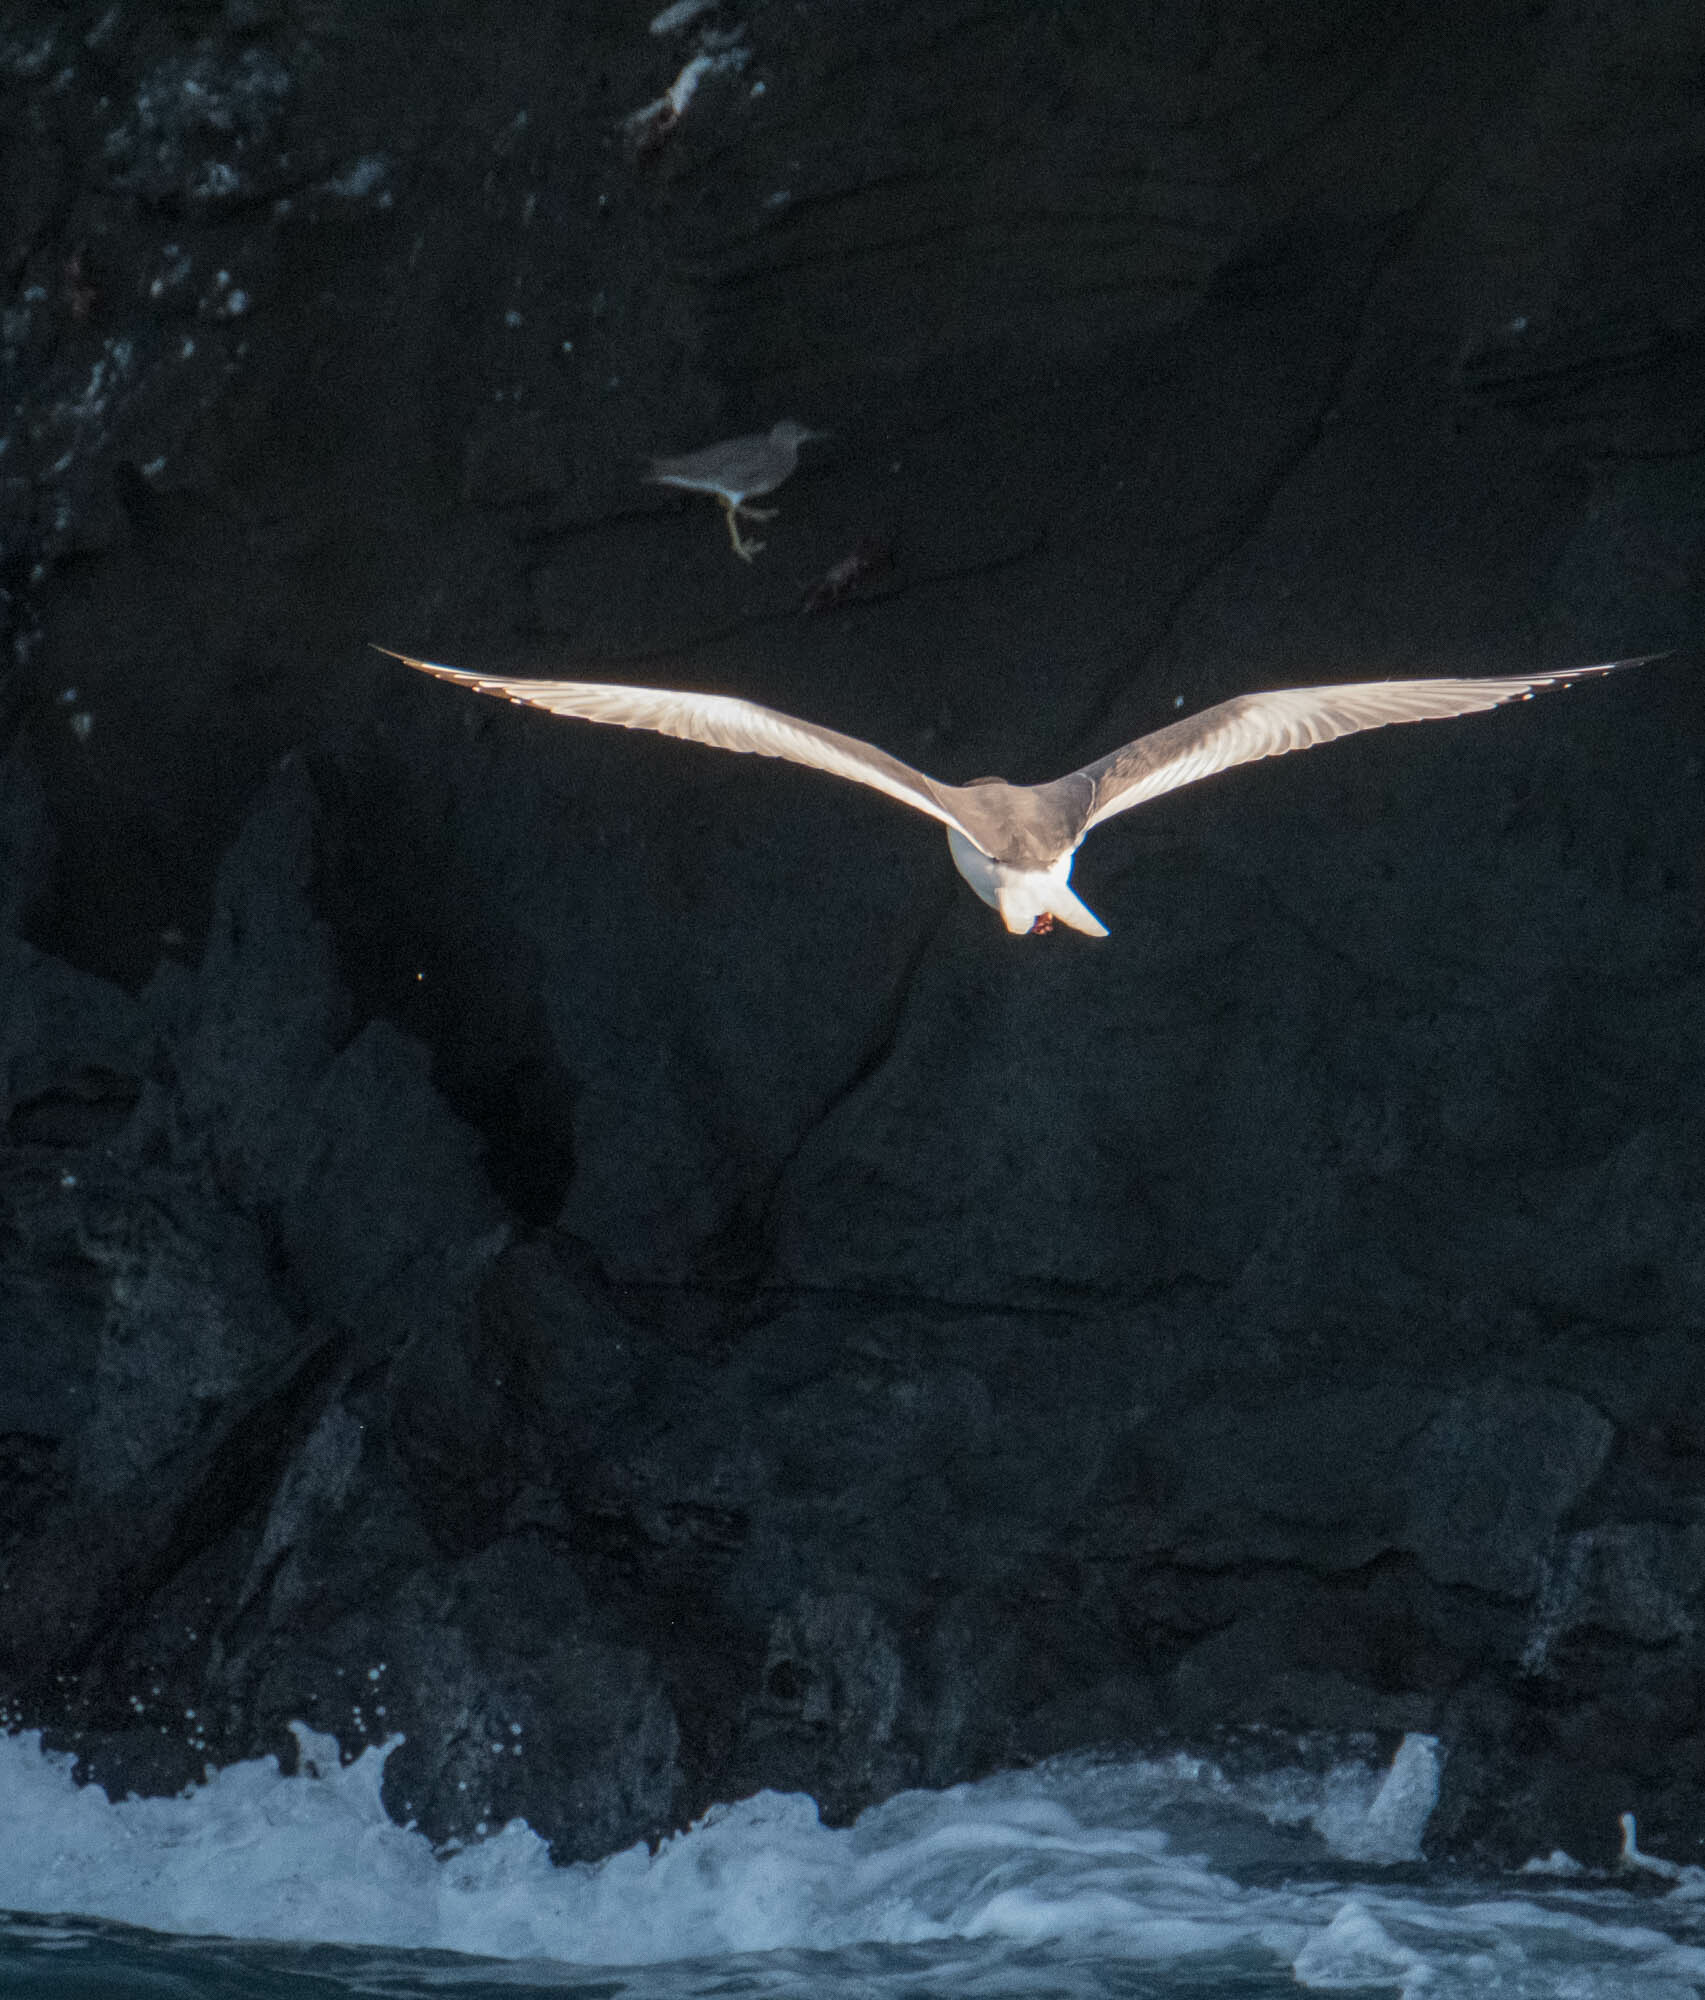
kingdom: Animalia
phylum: Chordata
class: Aves
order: Charadriiformes
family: Scolopacidae
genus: Tringa
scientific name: Tringa incana
